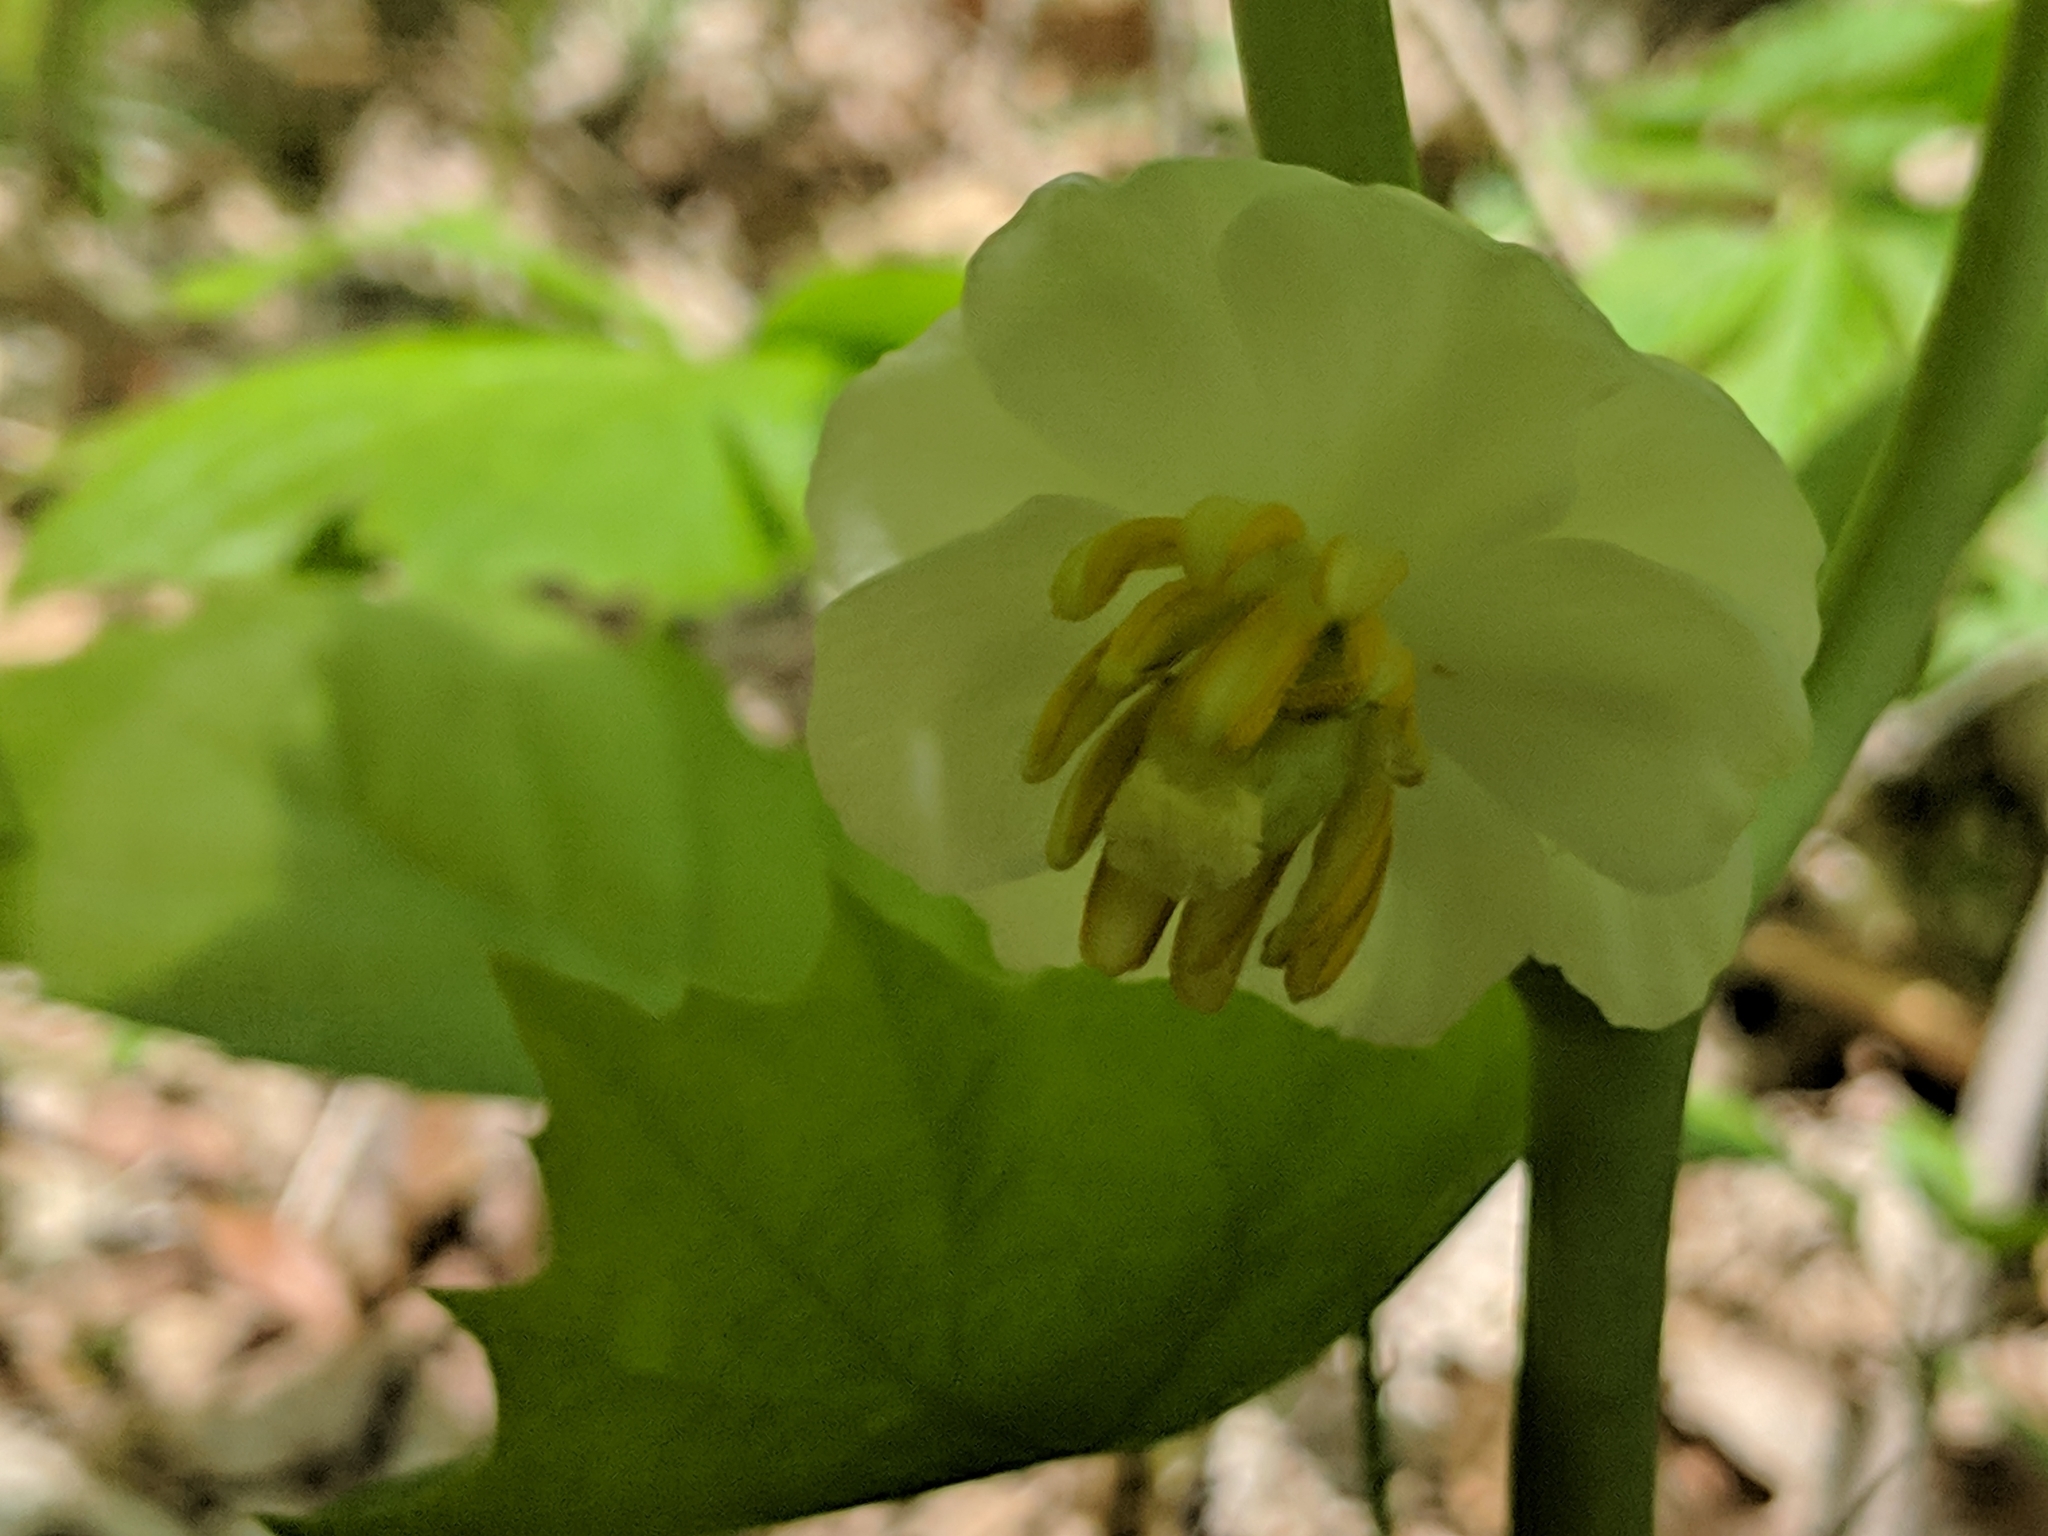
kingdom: Plantae
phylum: Tracheophyta
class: Magnoliopsida
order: Ranunculales
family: Berberidaceae
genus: Podophyllum
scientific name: Podophyllum peltatum
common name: Wild mandrake
